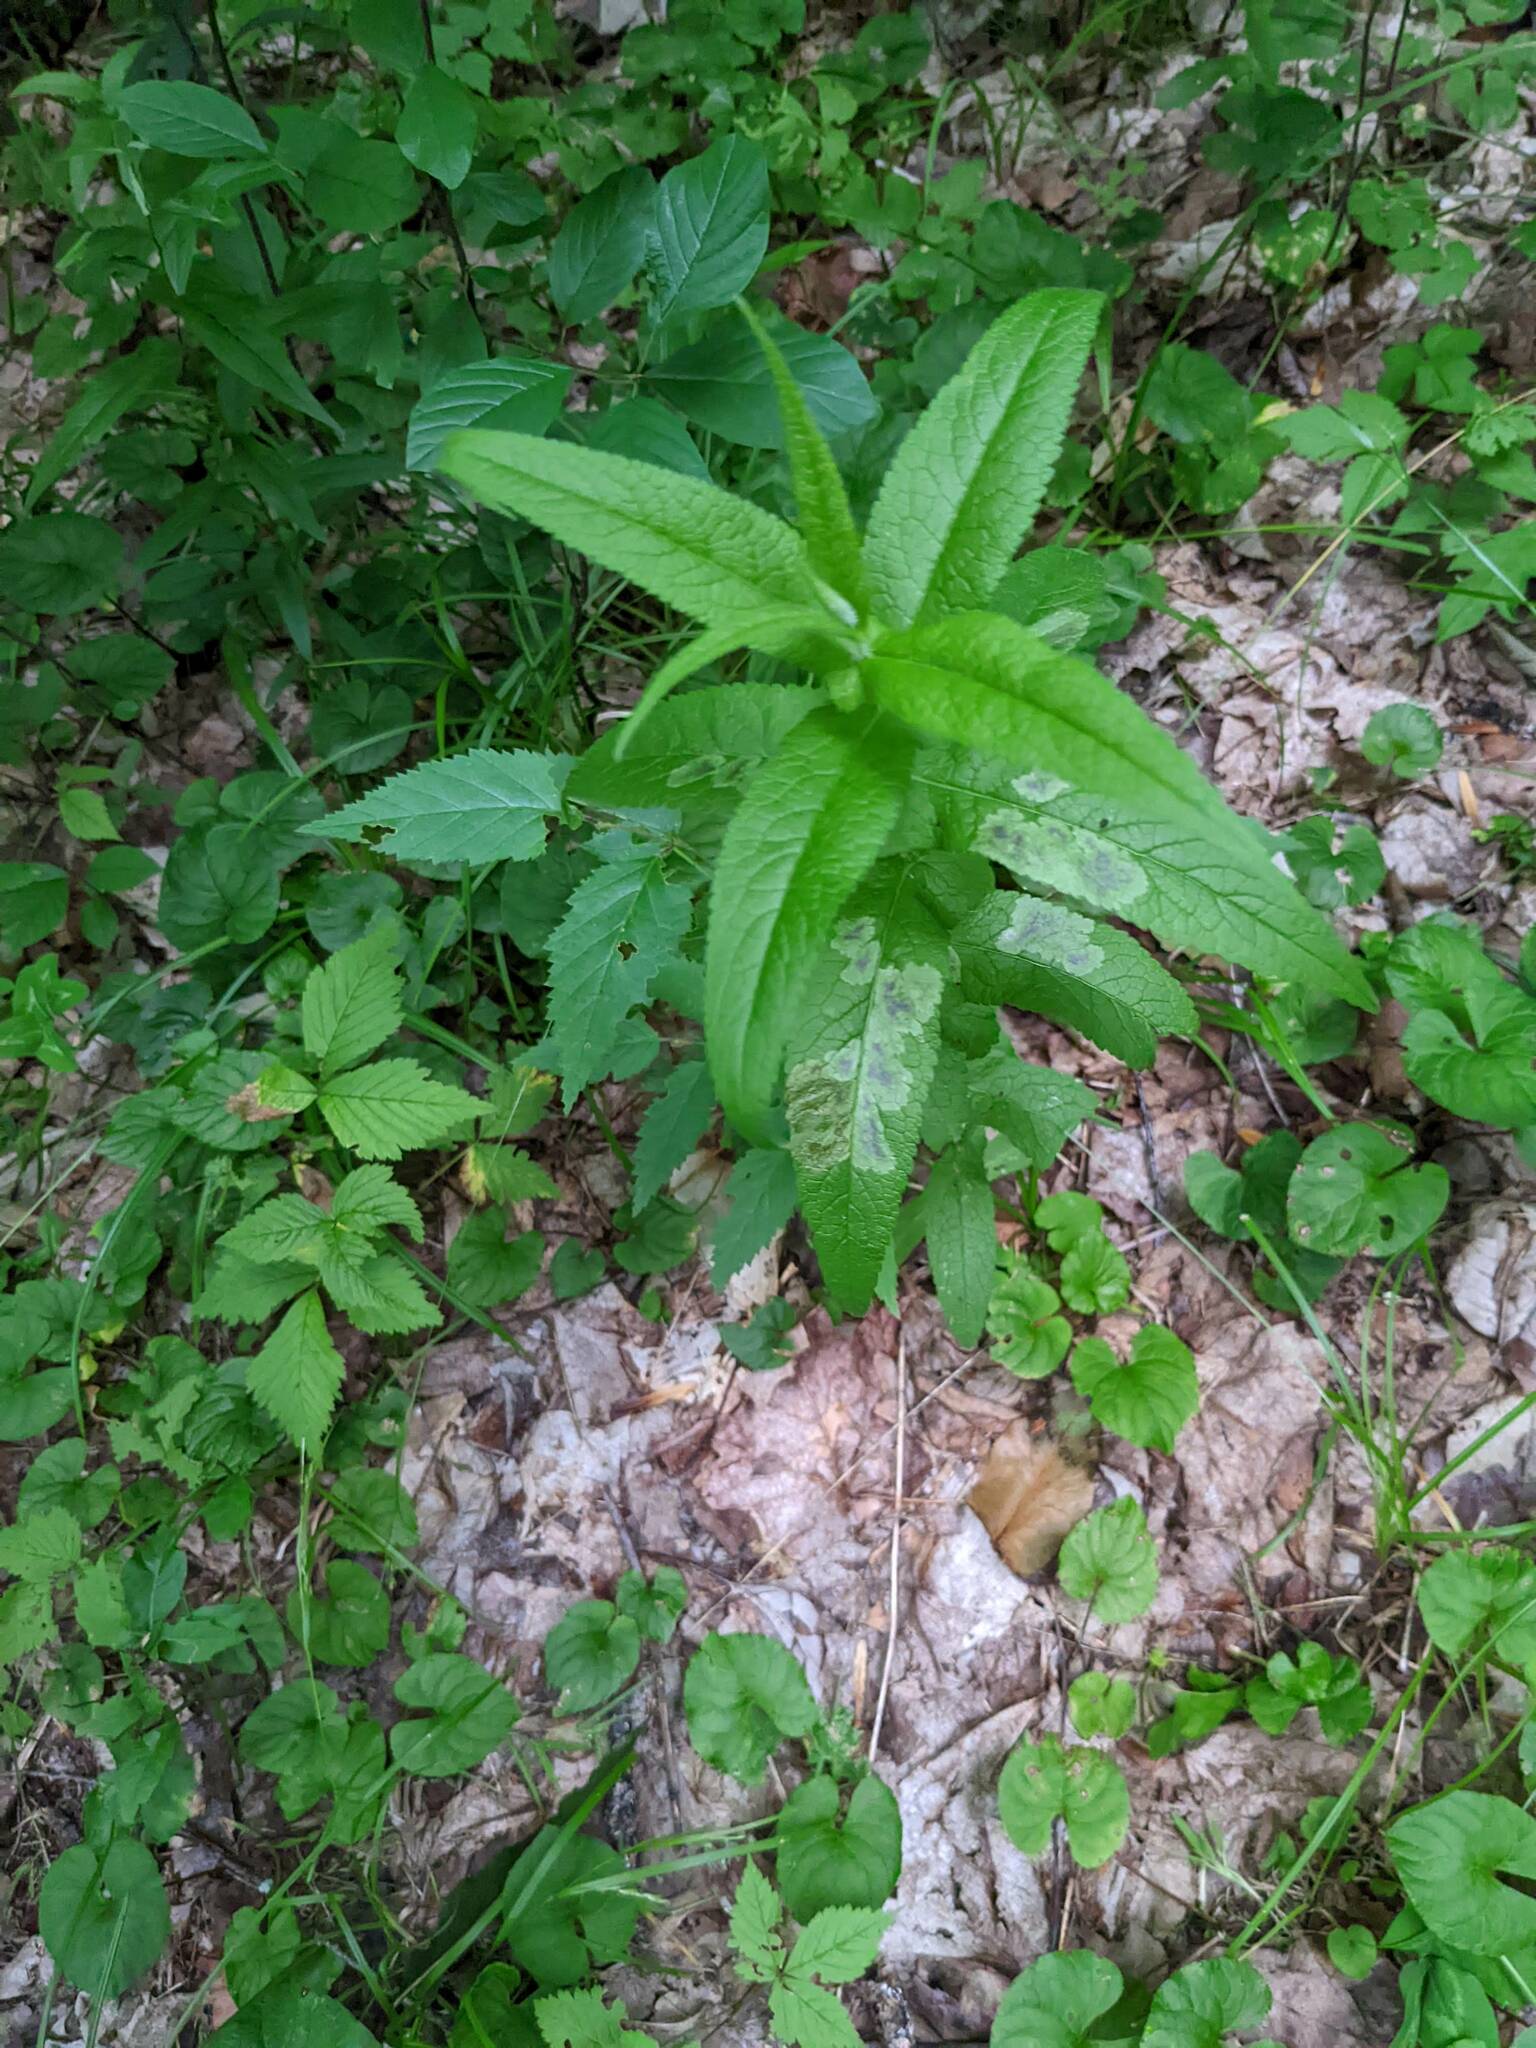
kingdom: Plantae
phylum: Tracheophyta
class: Magnoliopsida
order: Asterales
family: Asteraceae
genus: Eupatorium
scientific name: Eupatorium perfoliatum
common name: Boneset
